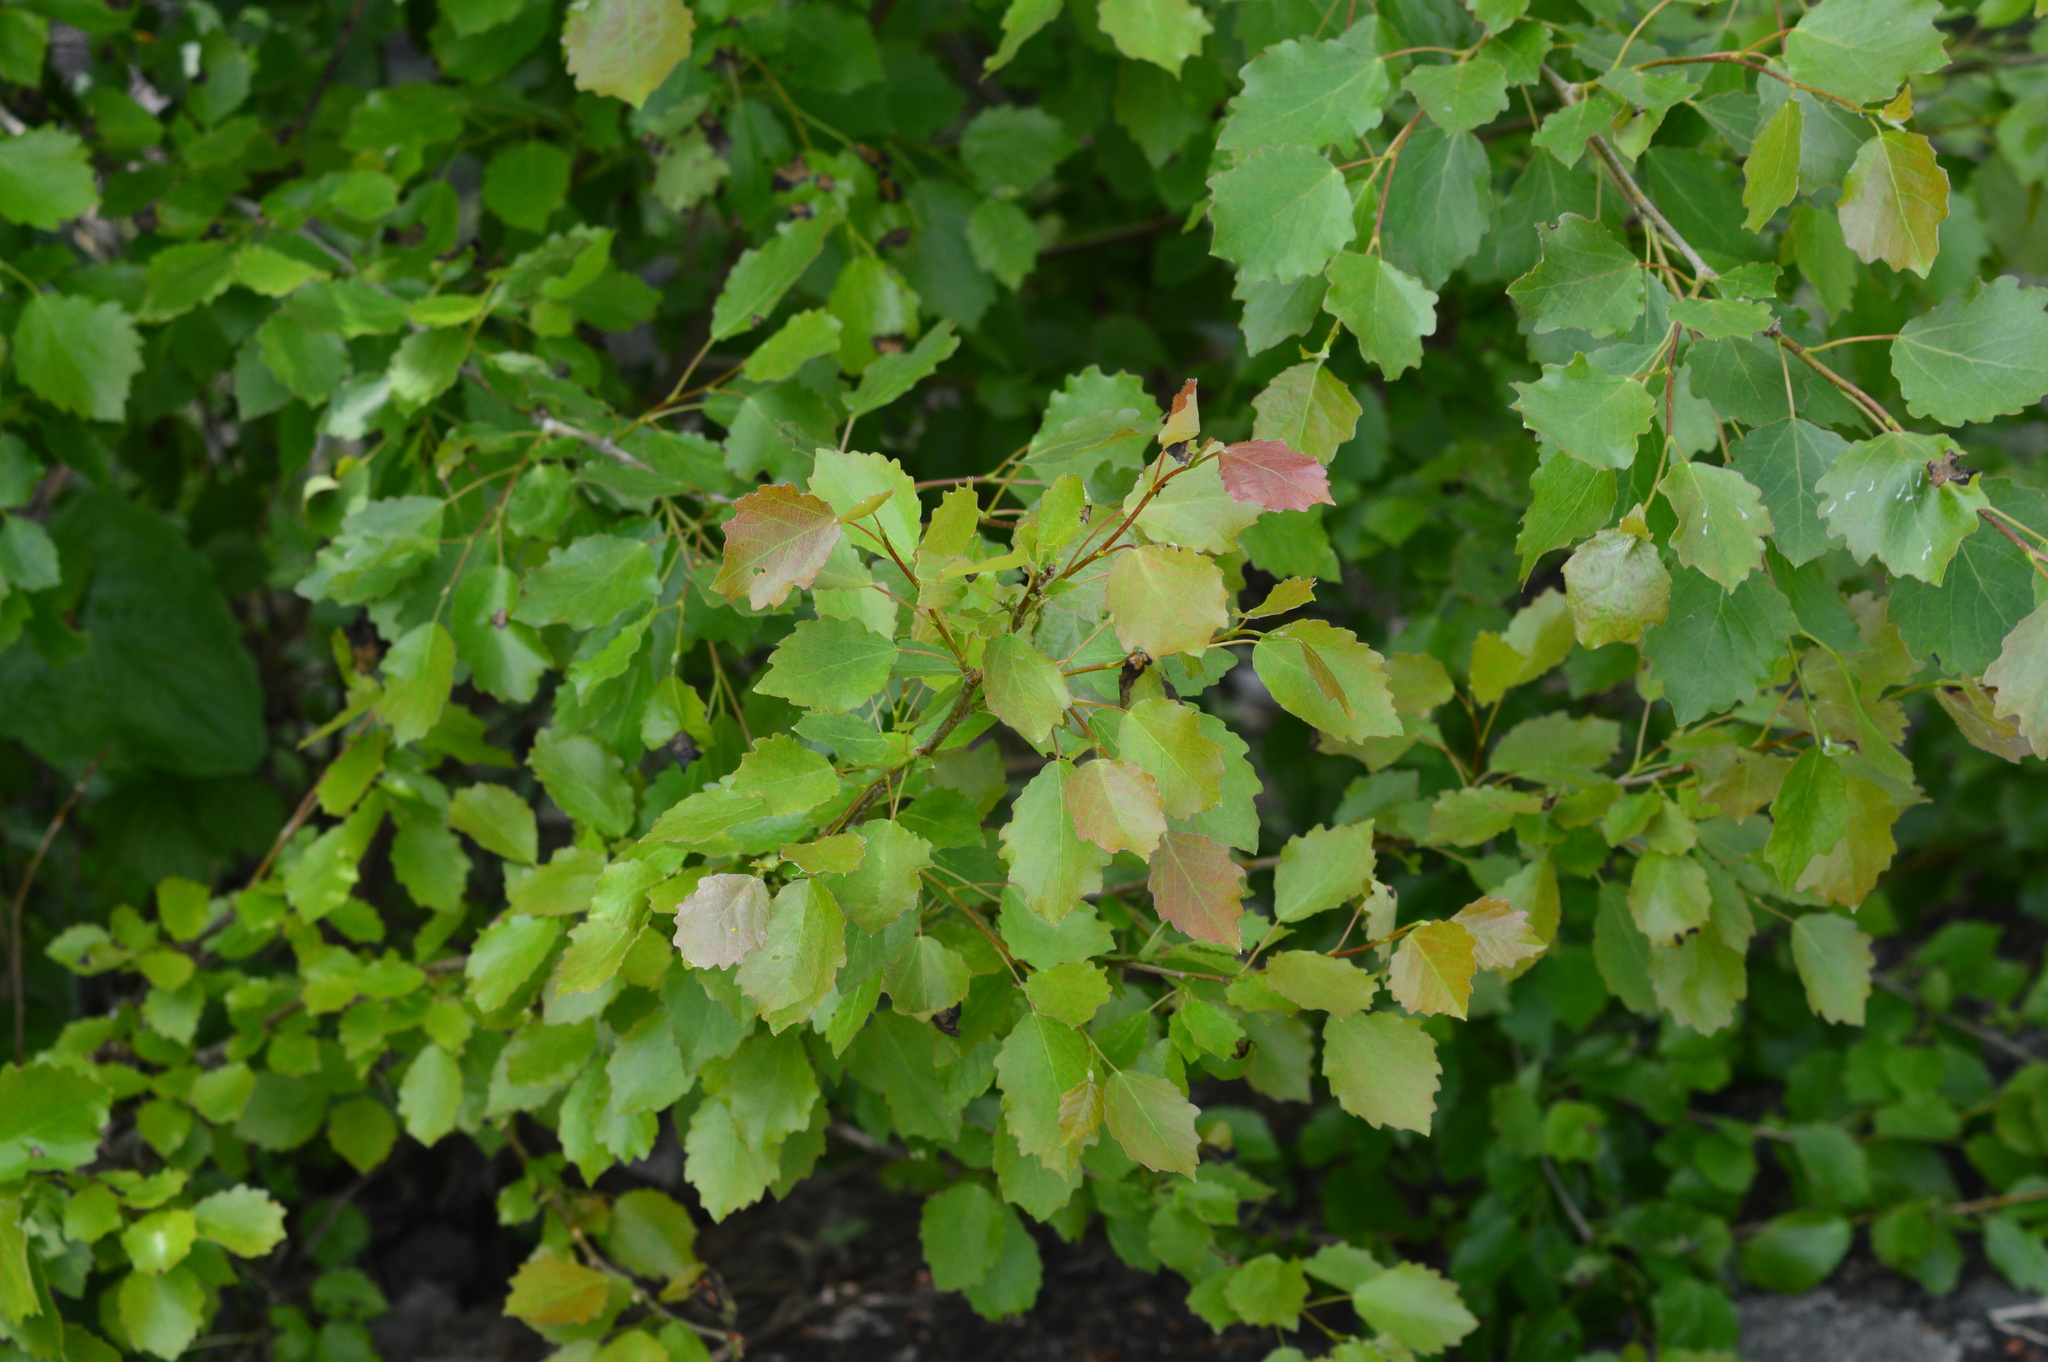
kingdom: Plantae
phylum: Tracheophyta
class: Magnoliopsida
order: Malpighiales
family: Salicaceae
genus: Populus
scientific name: Populus tremula
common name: European aspen
